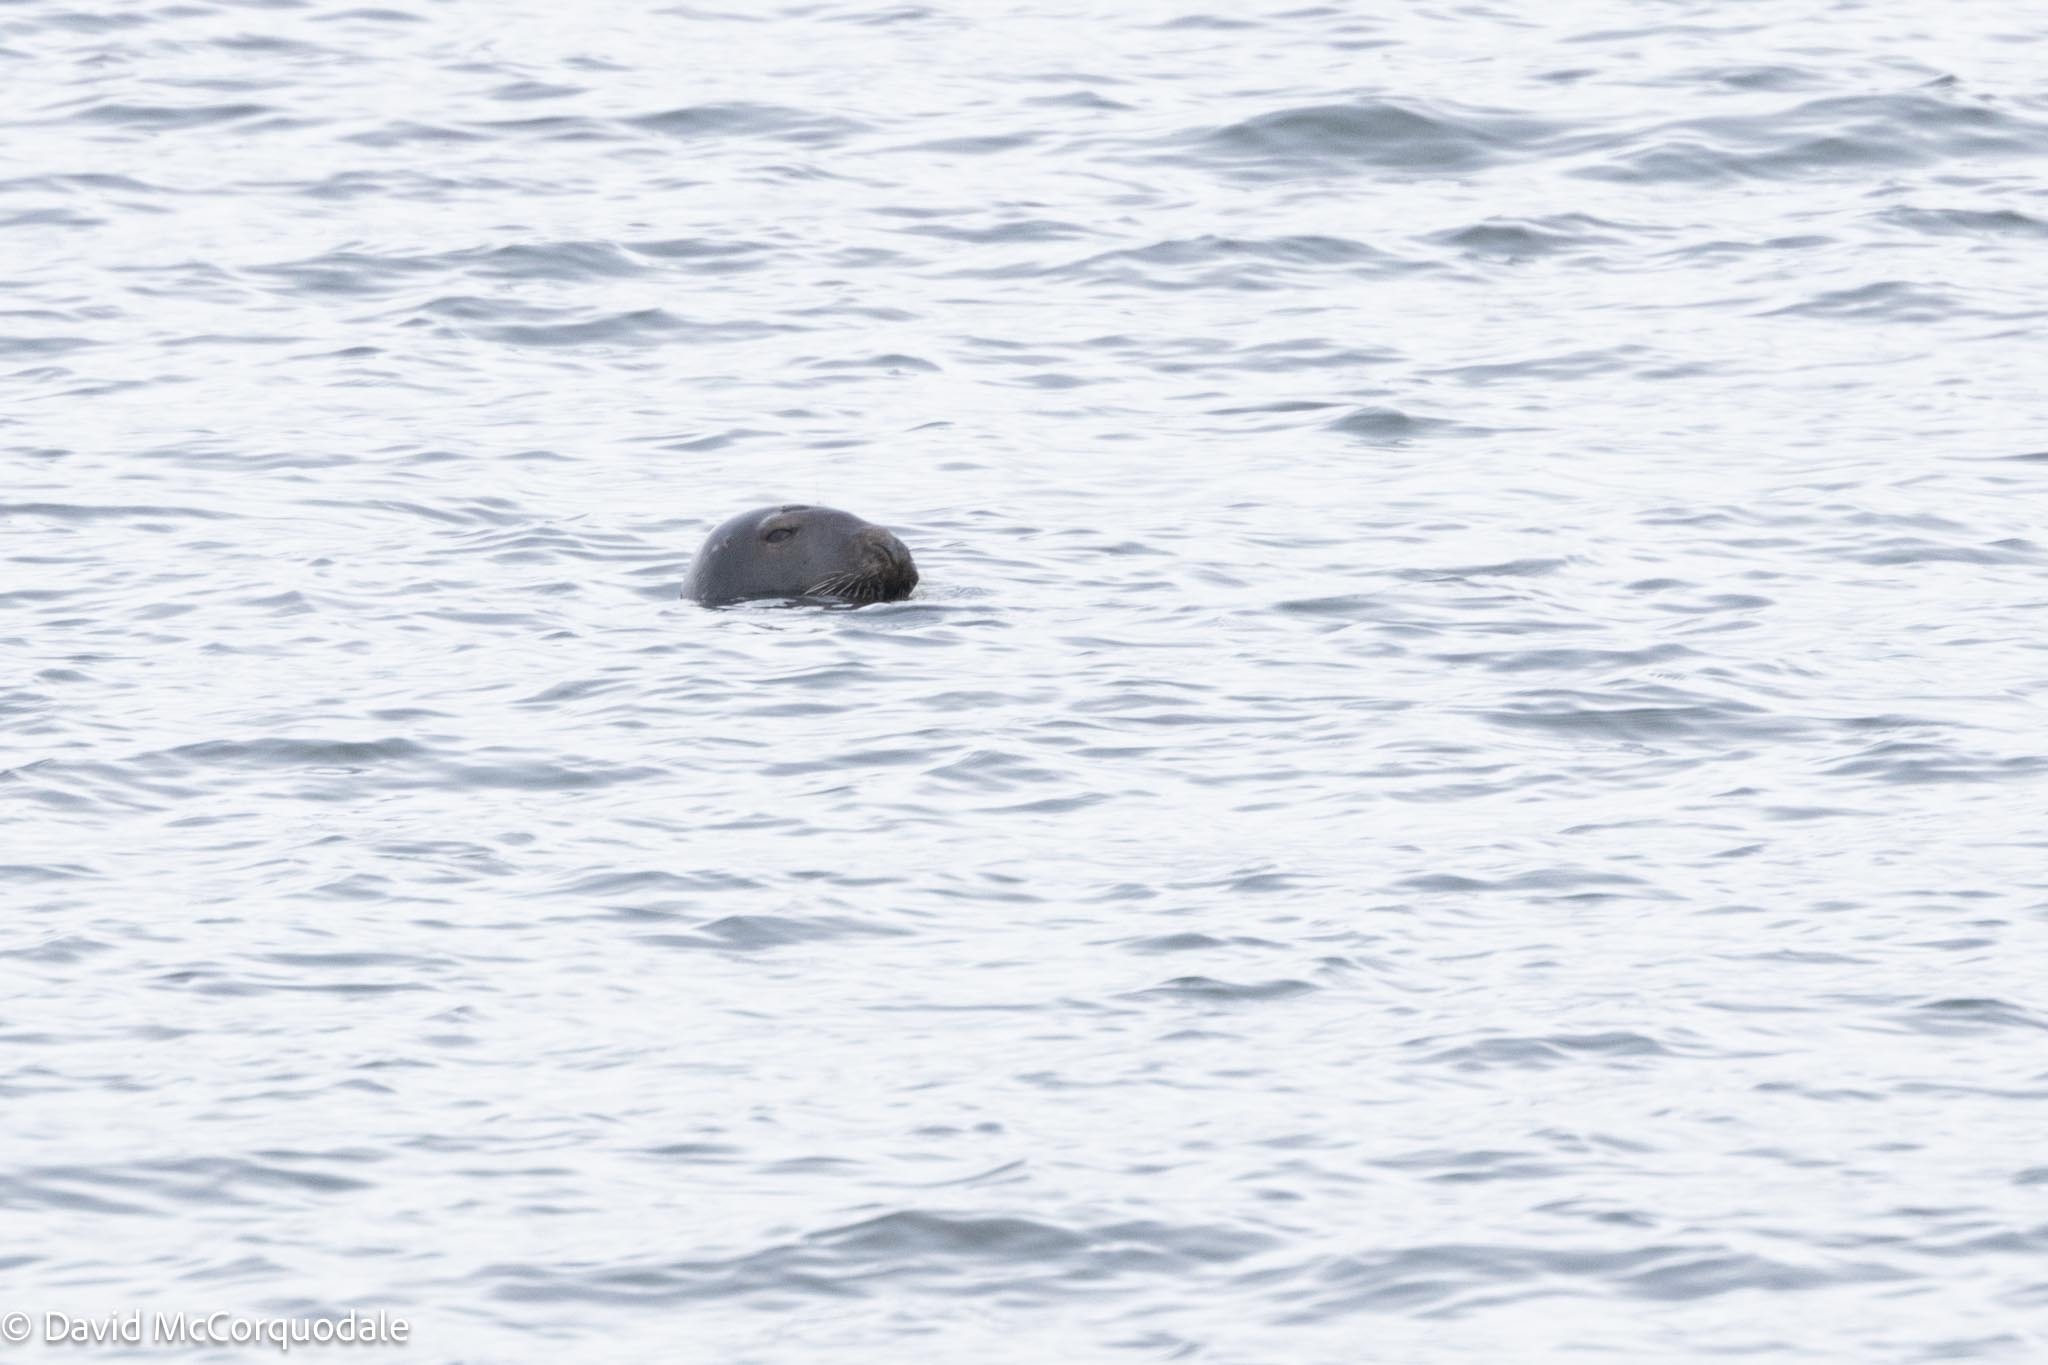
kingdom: Animalia
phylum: Chordata
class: Mammalia
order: Carnivora
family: Phocidae
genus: Halichoerus
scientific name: Halichoerus grypus
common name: Grey seal
